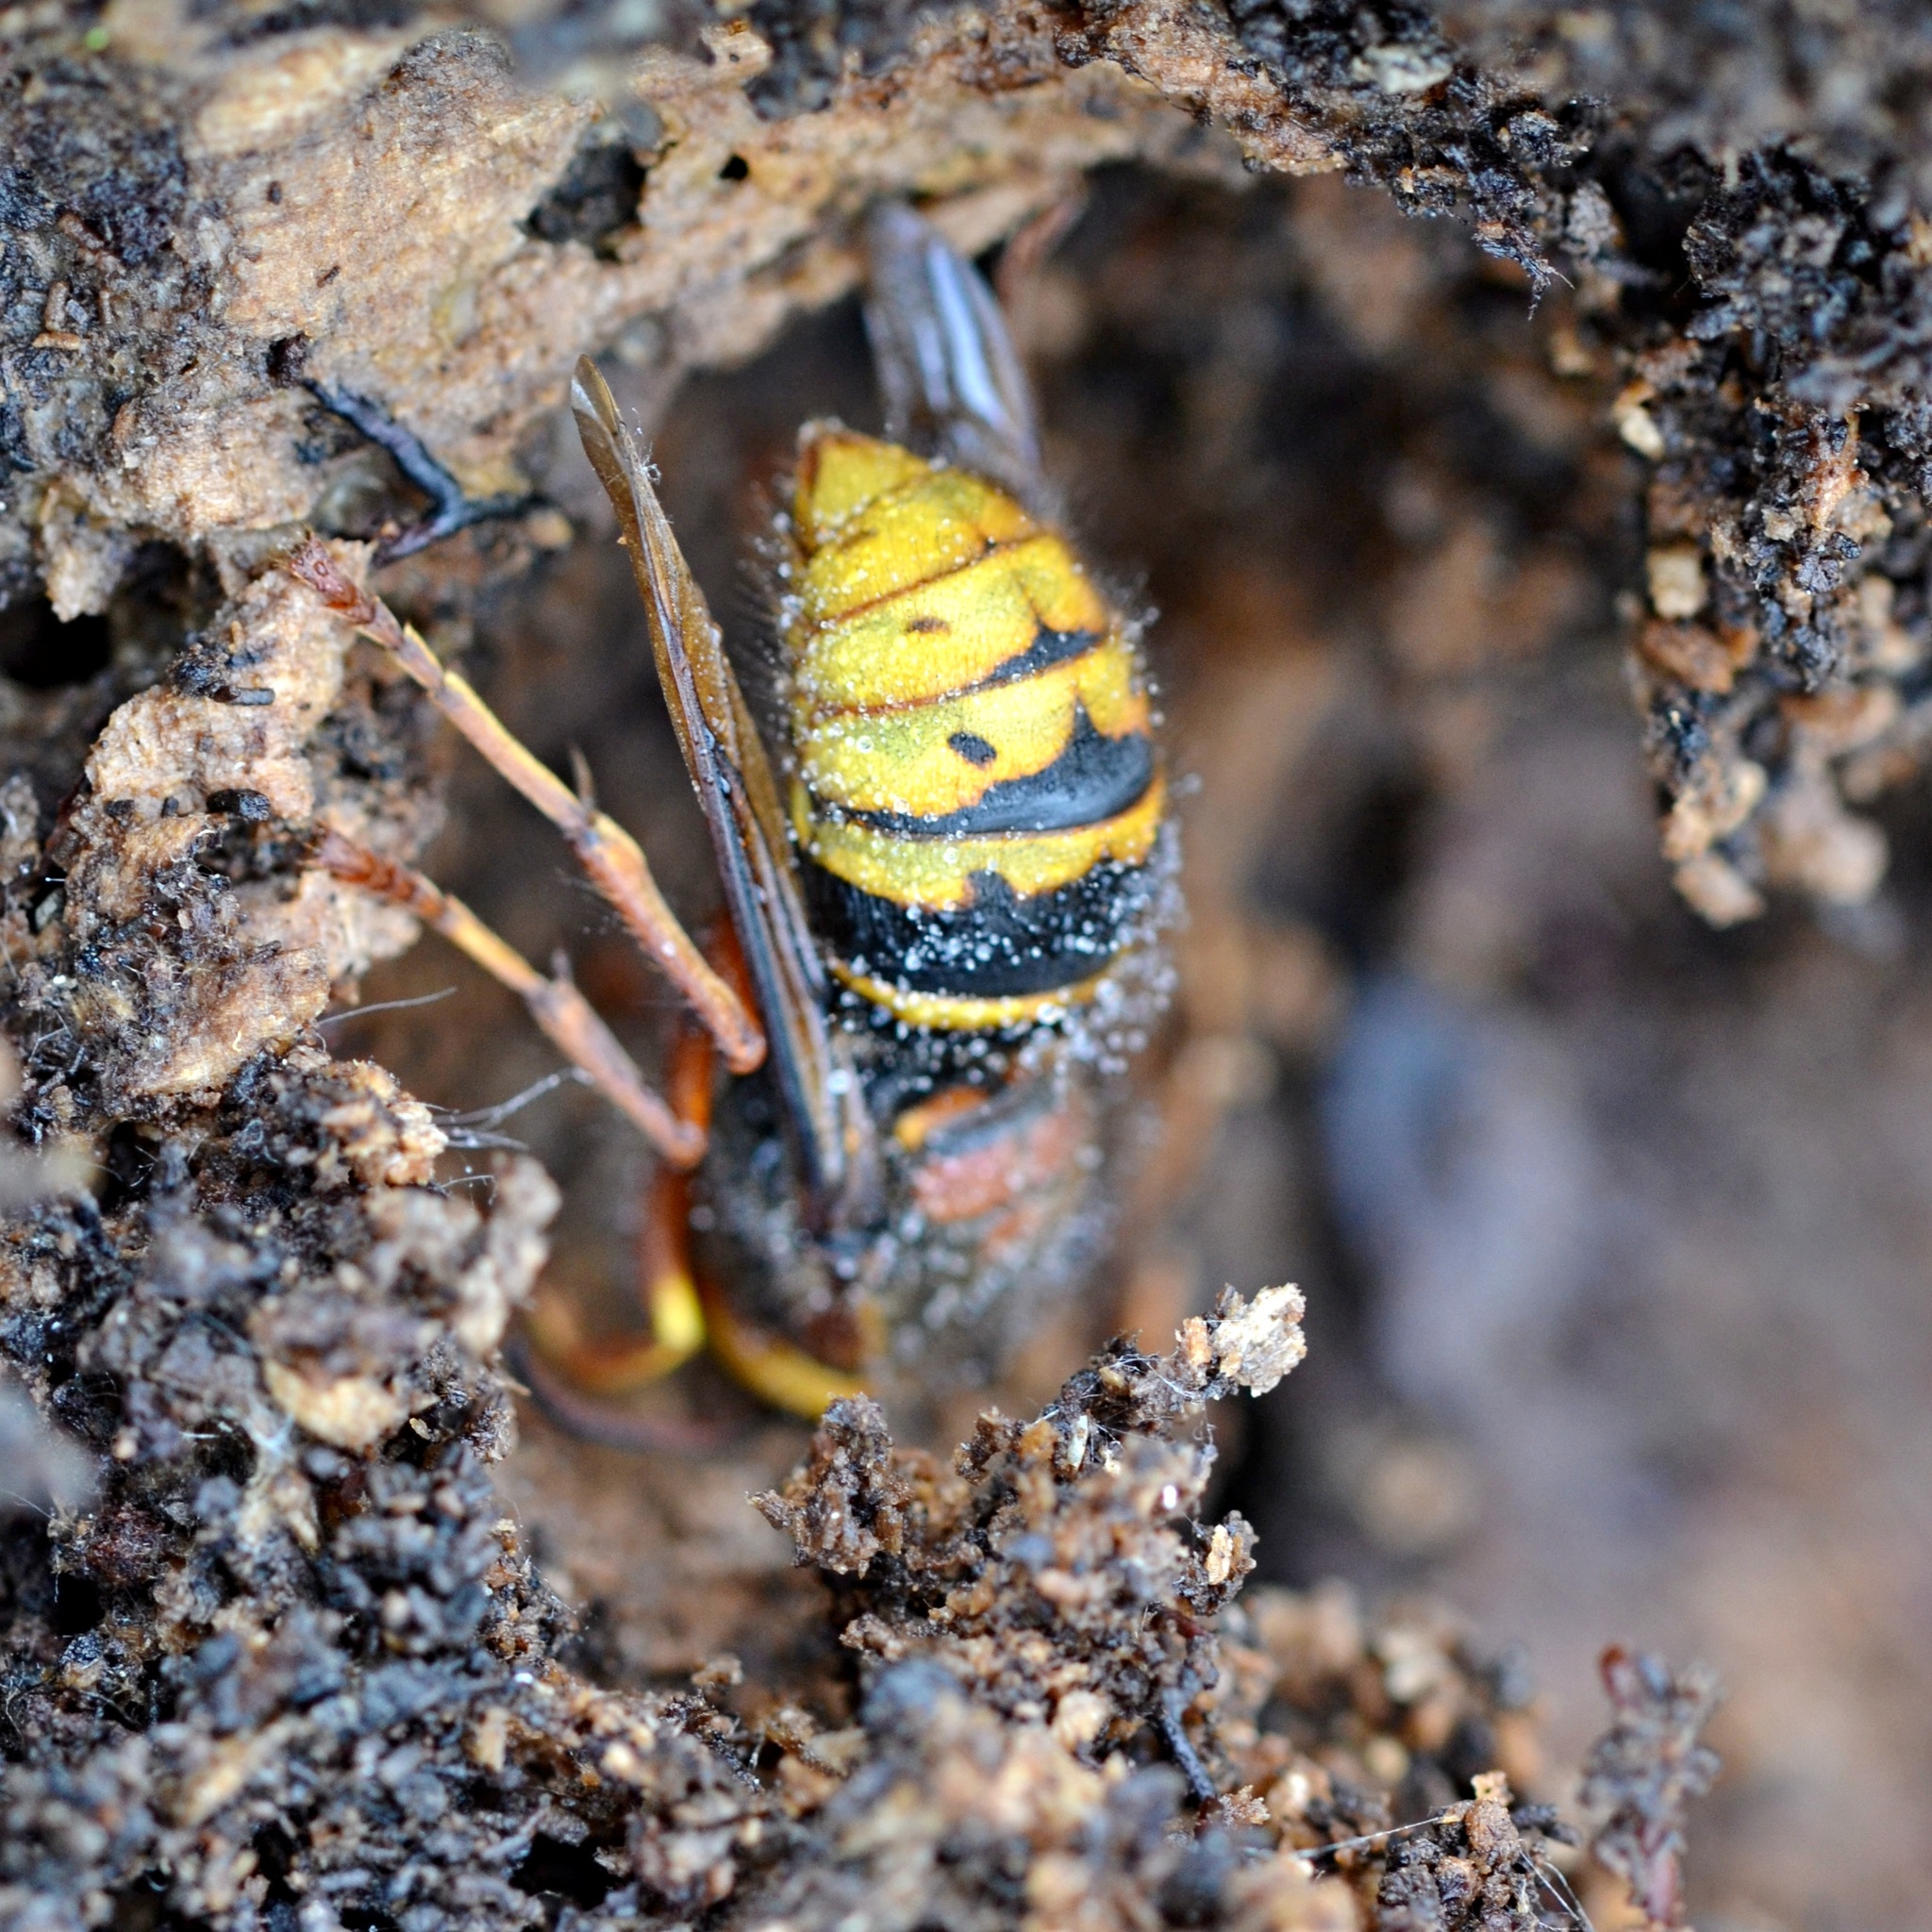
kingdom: Animalia
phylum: Arthropoda
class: Insecta
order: Hymenoptera
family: Vespidae
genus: Dolichovespula
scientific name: Dolichovespula media
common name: Median wasp
